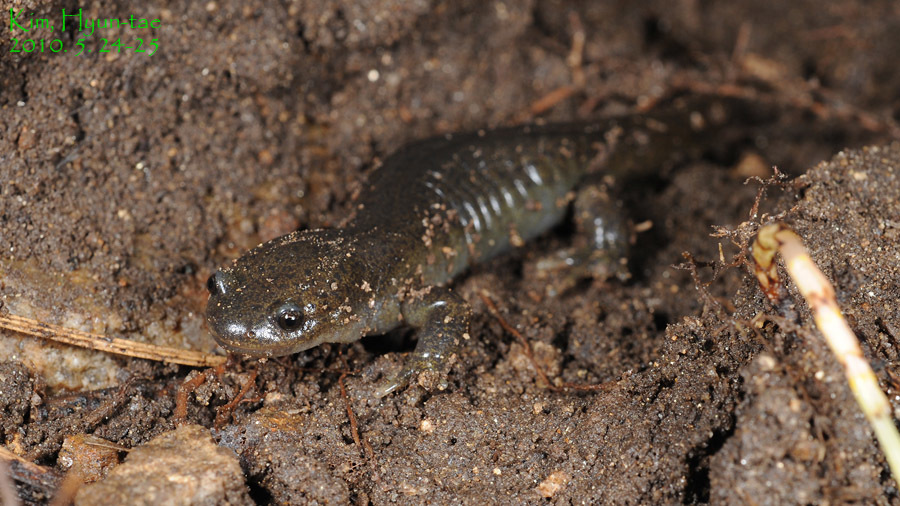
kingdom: Animalia
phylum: Chordata
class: Amphibia
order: Caudata
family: Hynobiidae
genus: Hynobius
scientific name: Hynobius leechii
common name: Gensan salamander
